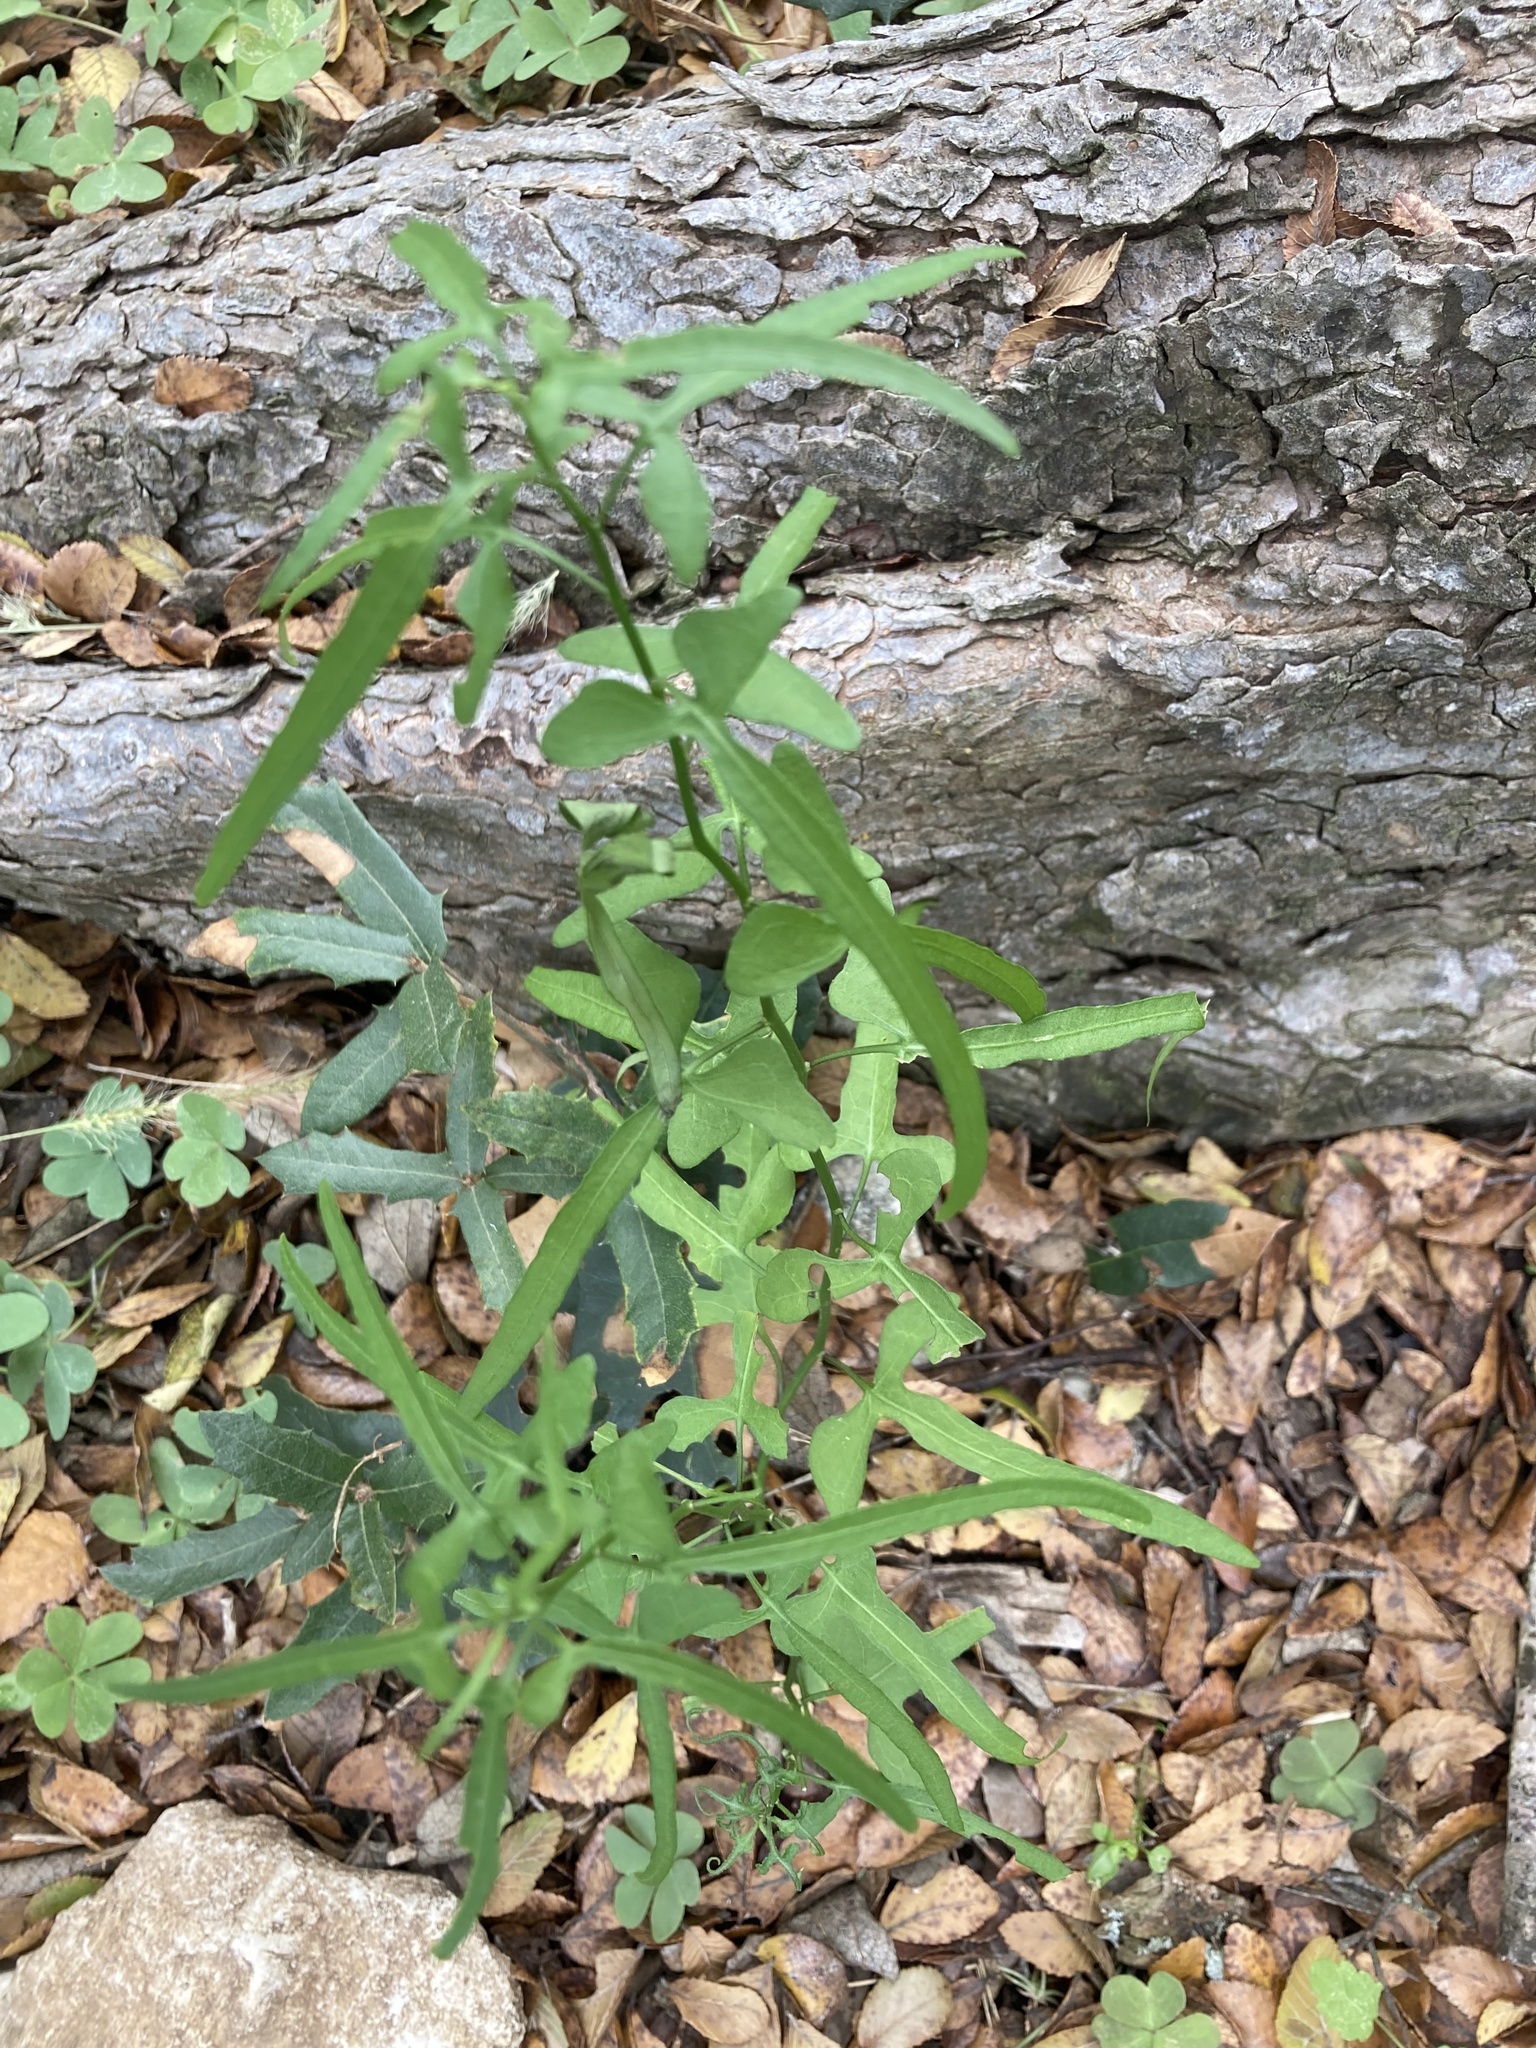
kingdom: Plantae
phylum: Tracheophyta
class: Magnoliopsida
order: Solanales
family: Solanaceae
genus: Solanum
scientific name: Solanum triquetrum
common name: Texas nightshade
